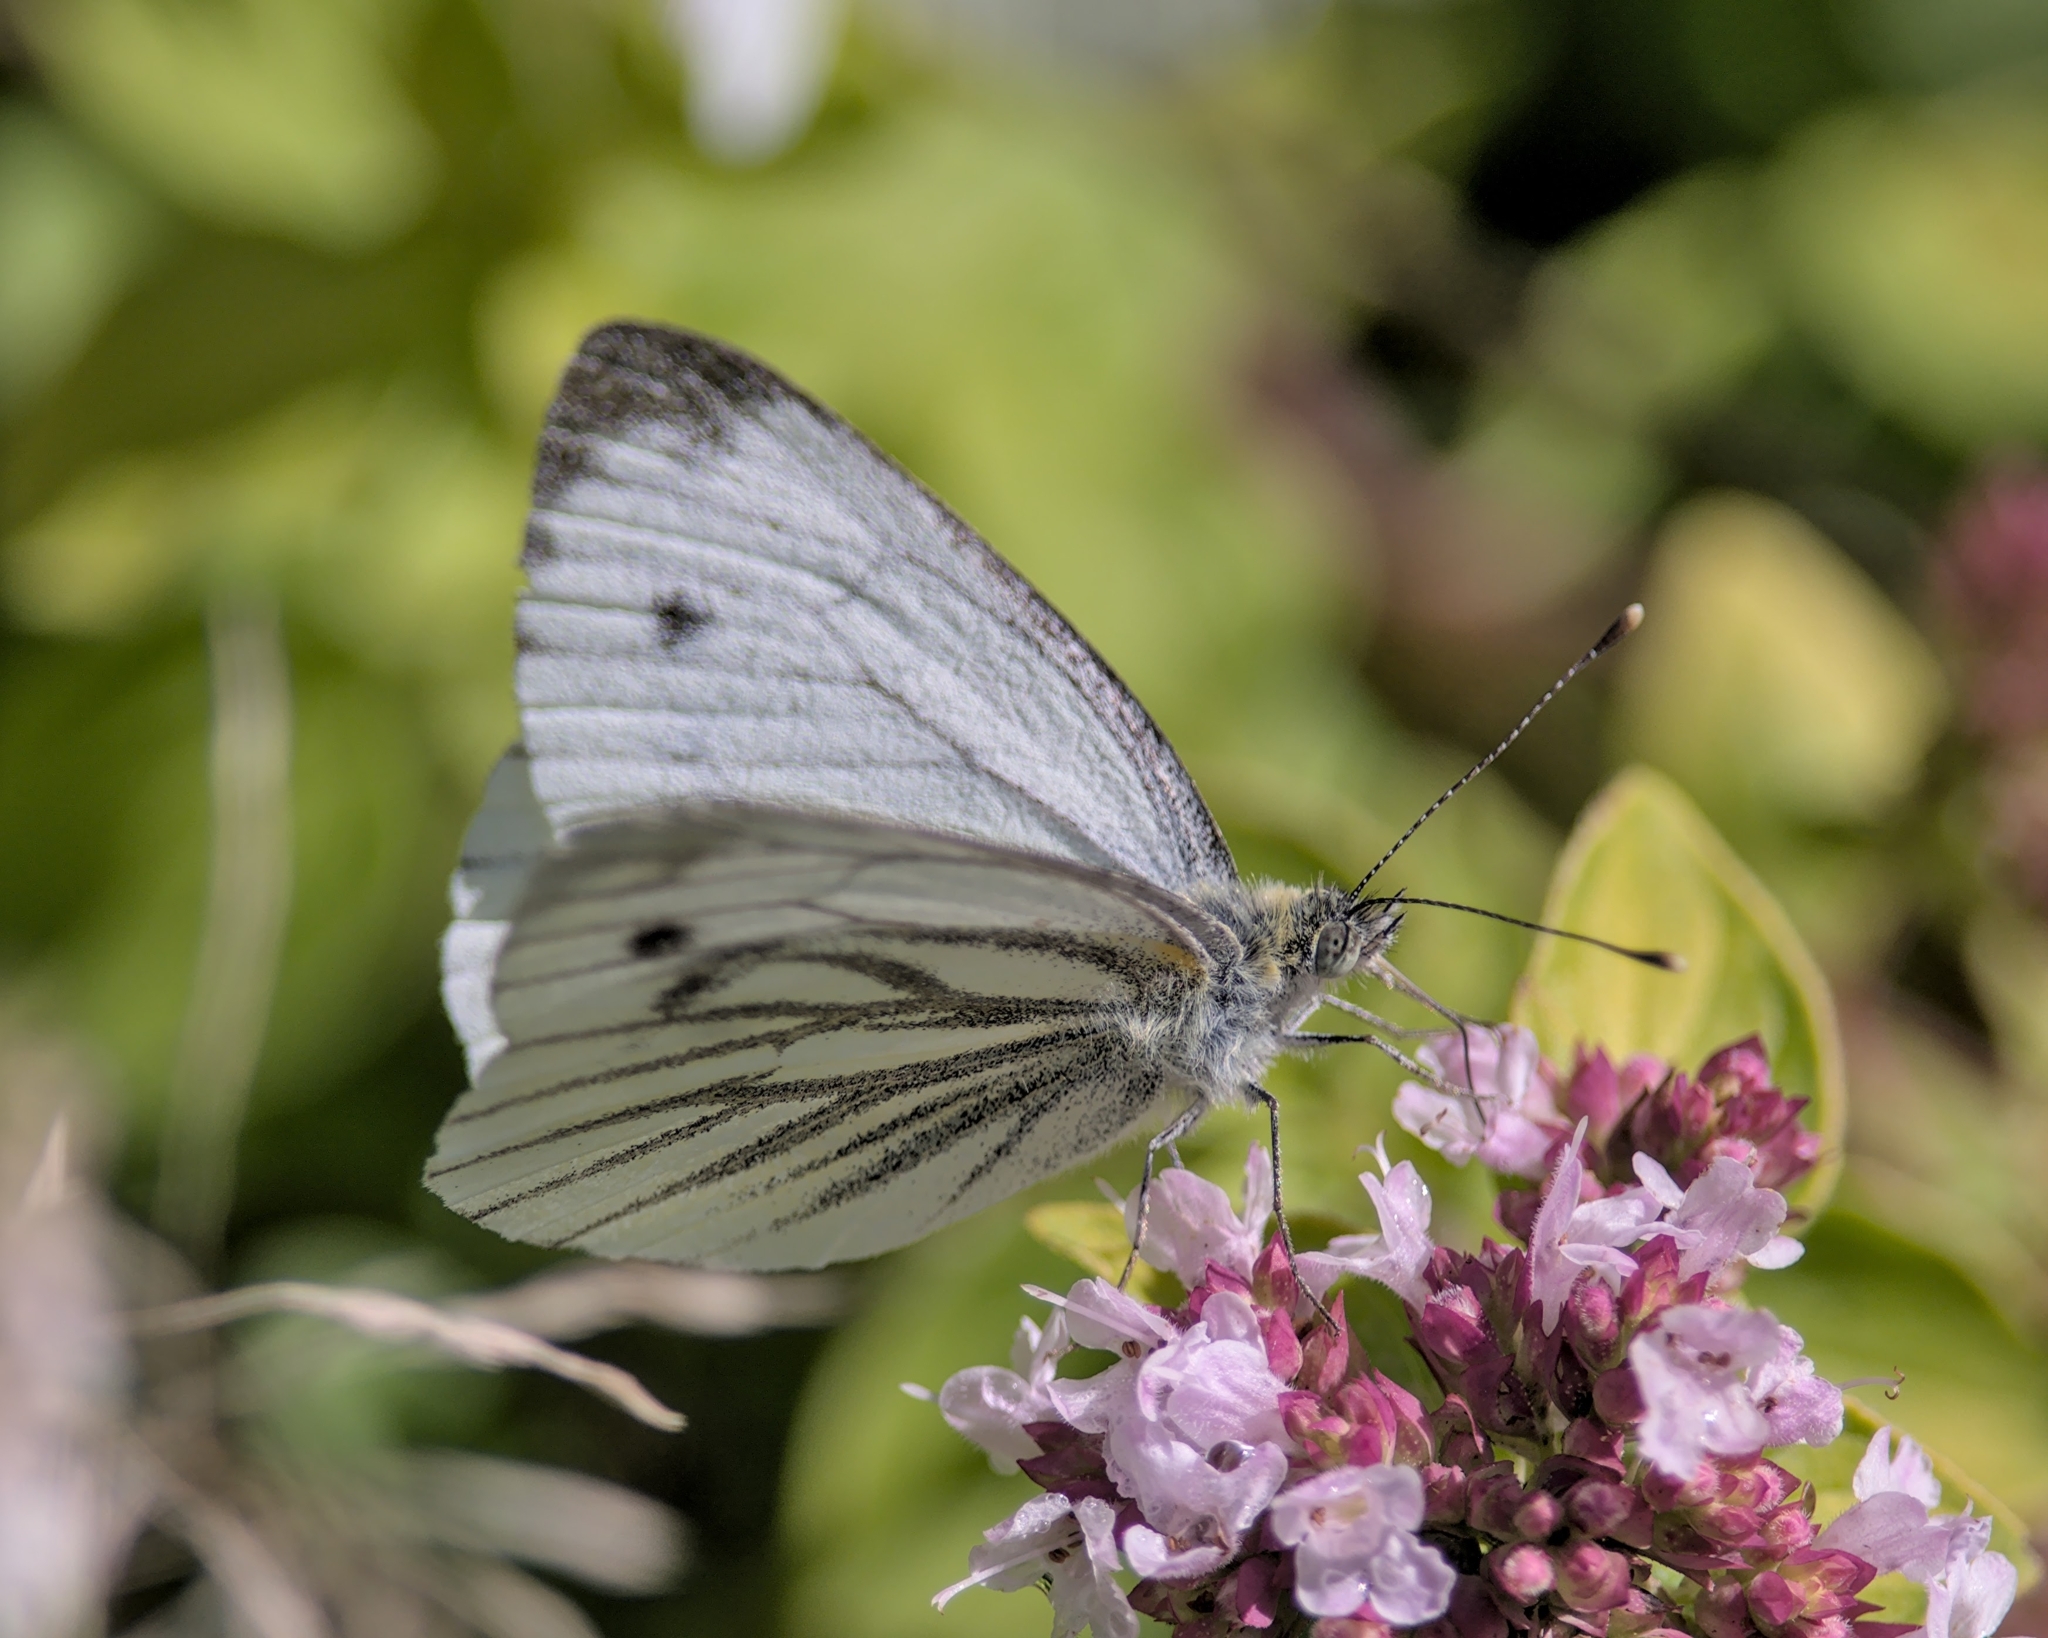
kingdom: Animalia
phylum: Arthropoda
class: Insecta
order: Lepidoptera
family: Pieridae
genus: Pieris
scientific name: Pieris napi
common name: Green-veined white
